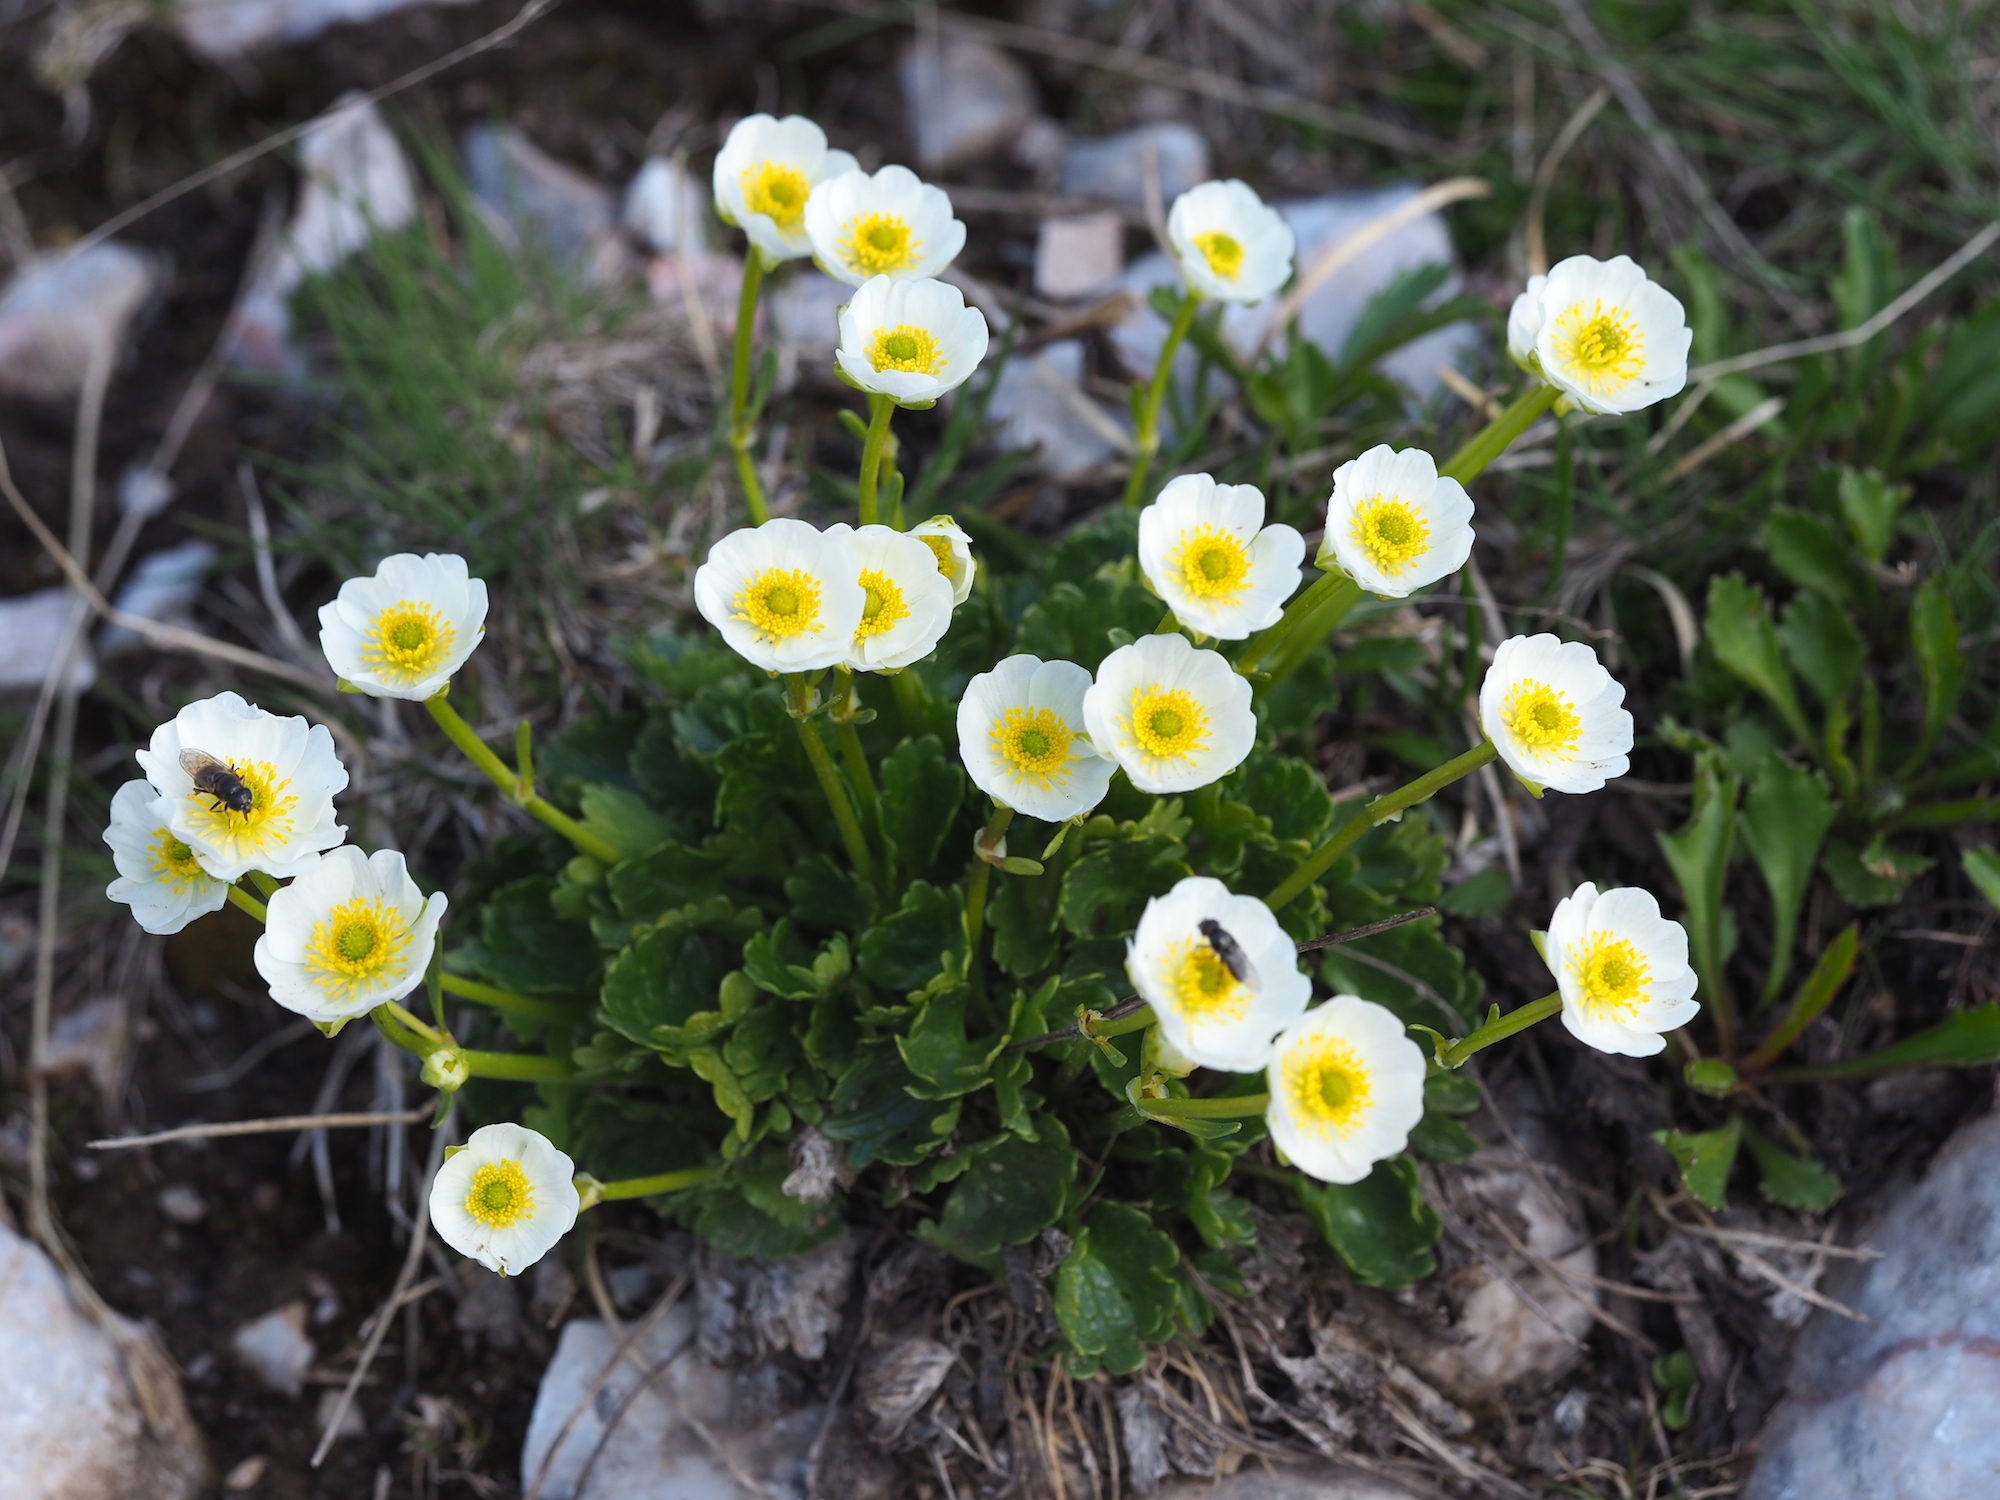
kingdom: Plantae
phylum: Tracheophyta
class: Magnoliopsida
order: Ranunculales
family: Ranunculaceae
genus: Ranunculus
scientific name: Ranunculus alpestris
